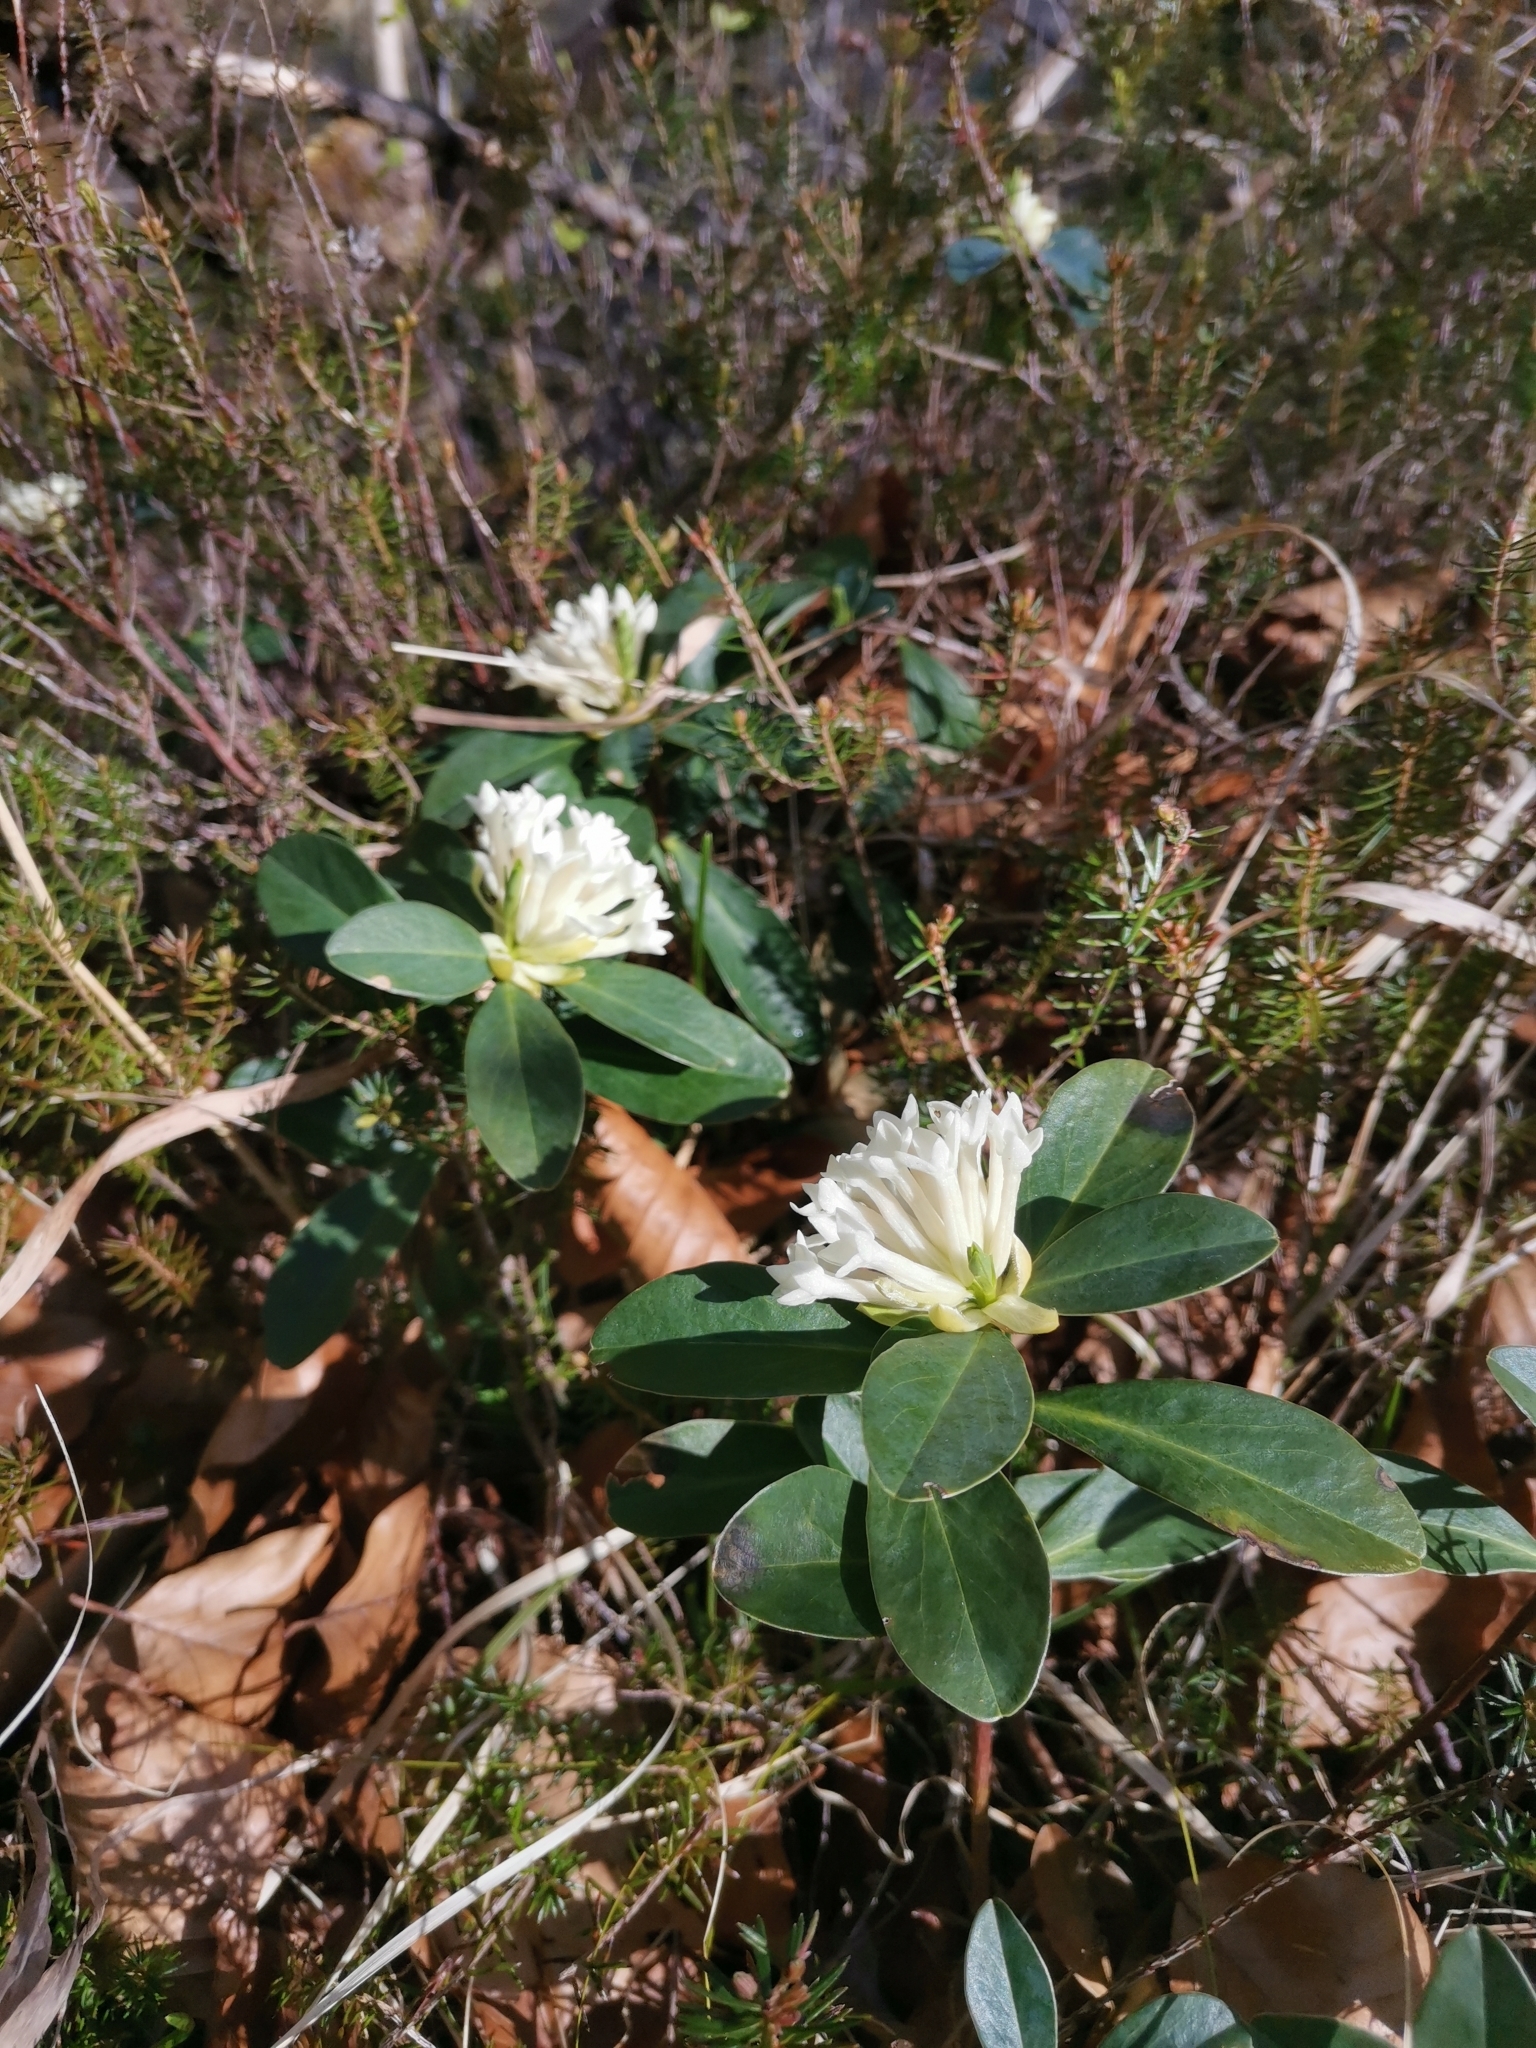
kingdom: Plantae
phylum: Tracheophyta
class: Magnoliopsida
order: Malvales
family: Thymelaeaceae
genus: Daphne
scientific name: Daphne blagayana
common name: Balkan daphne
